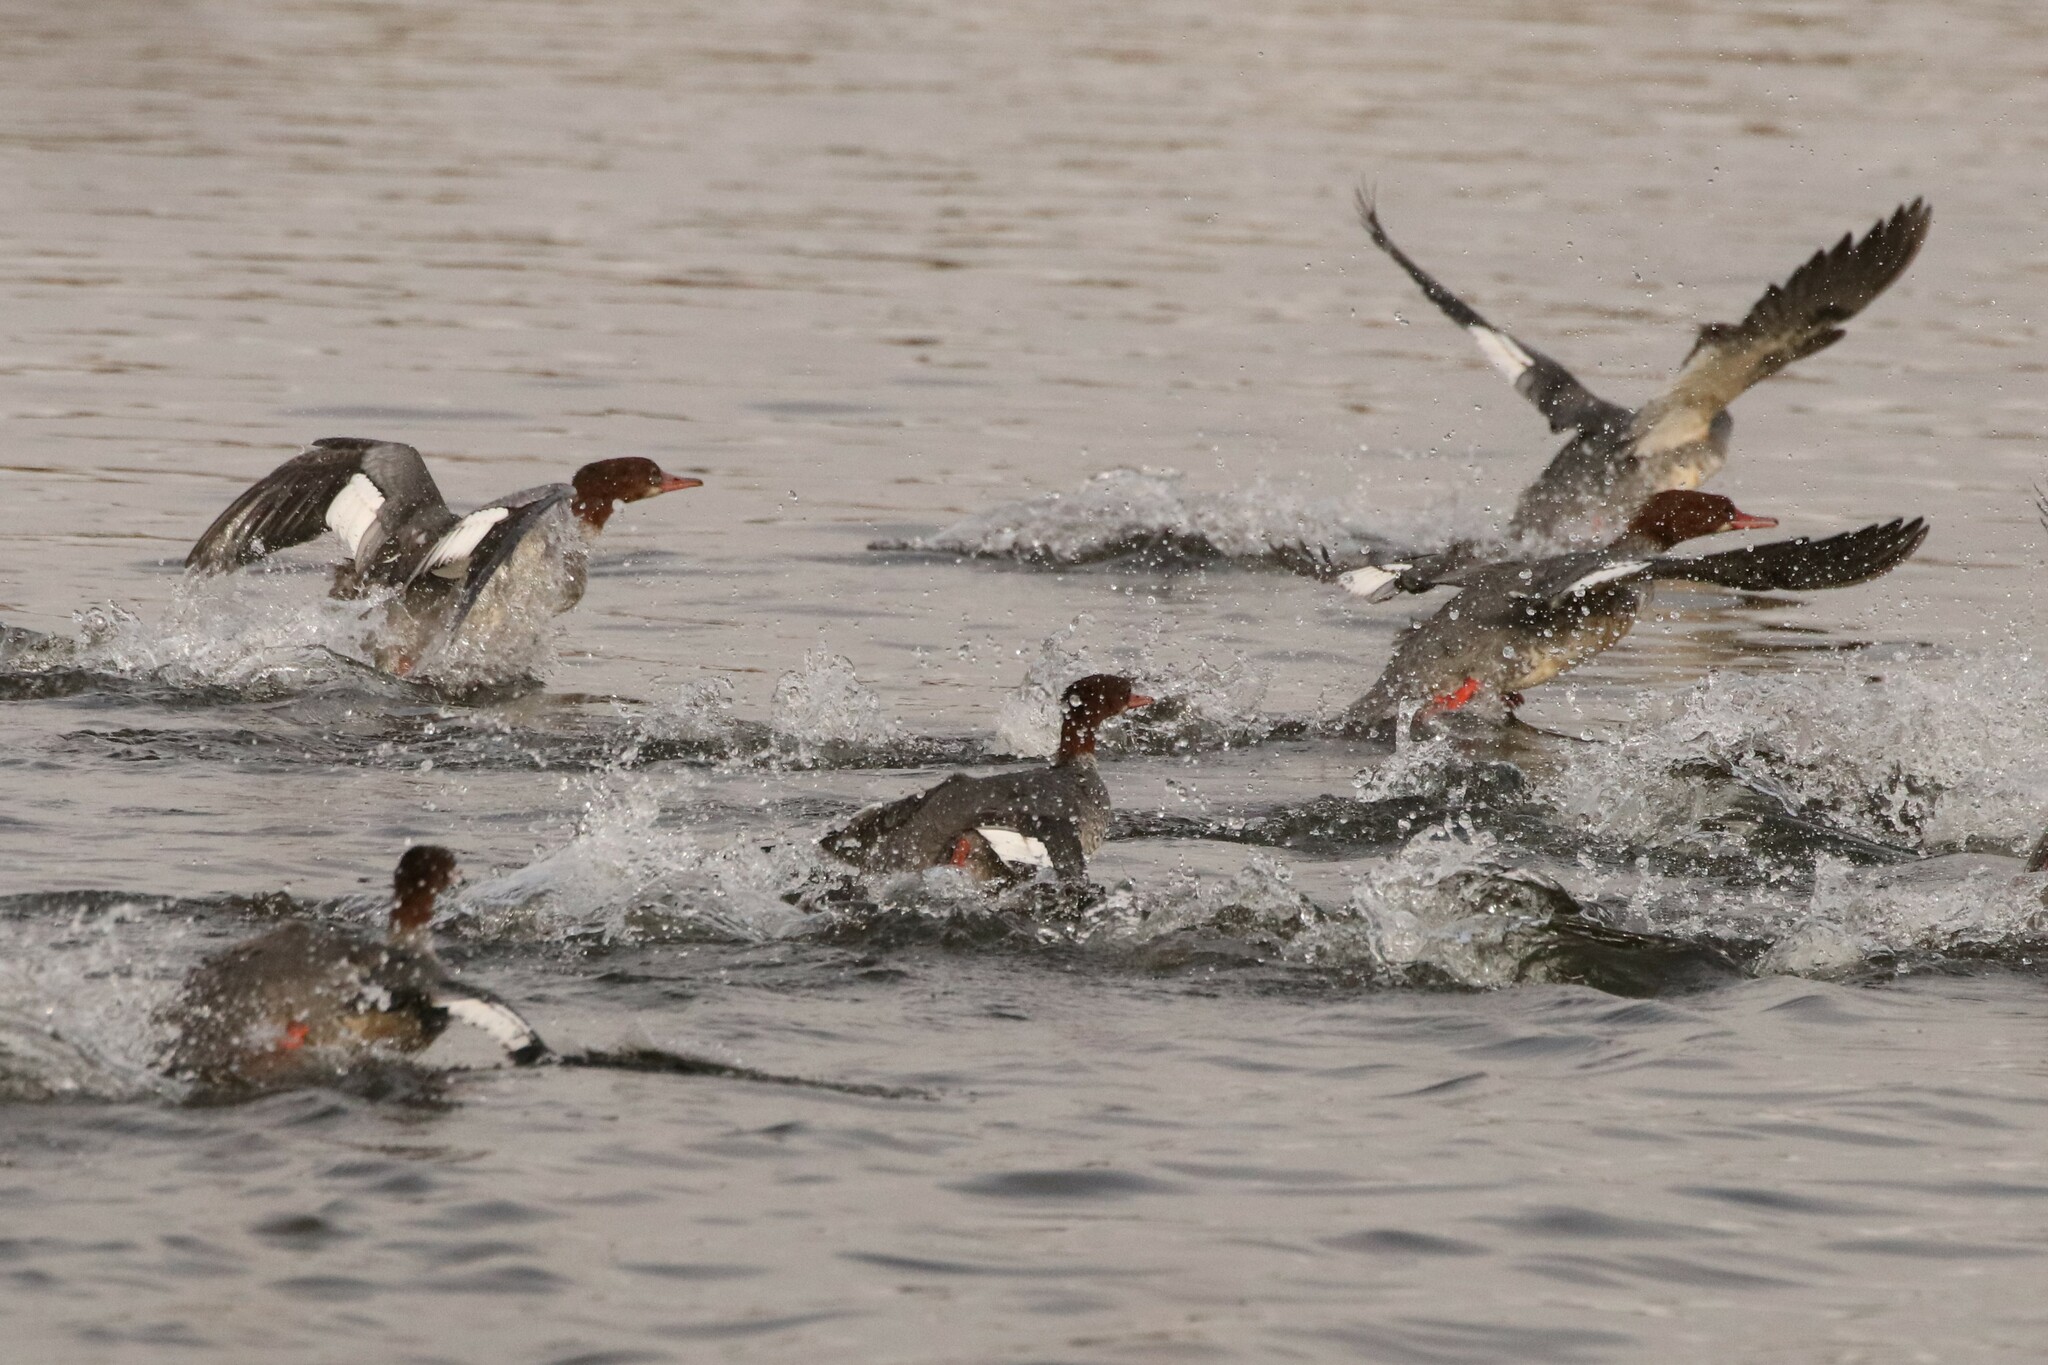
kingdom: Animalia
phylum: Chordata
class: Aves
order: Anseriformes
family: Anatidae
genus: Mergus
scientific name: Mergus merganser
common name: Common merganser
